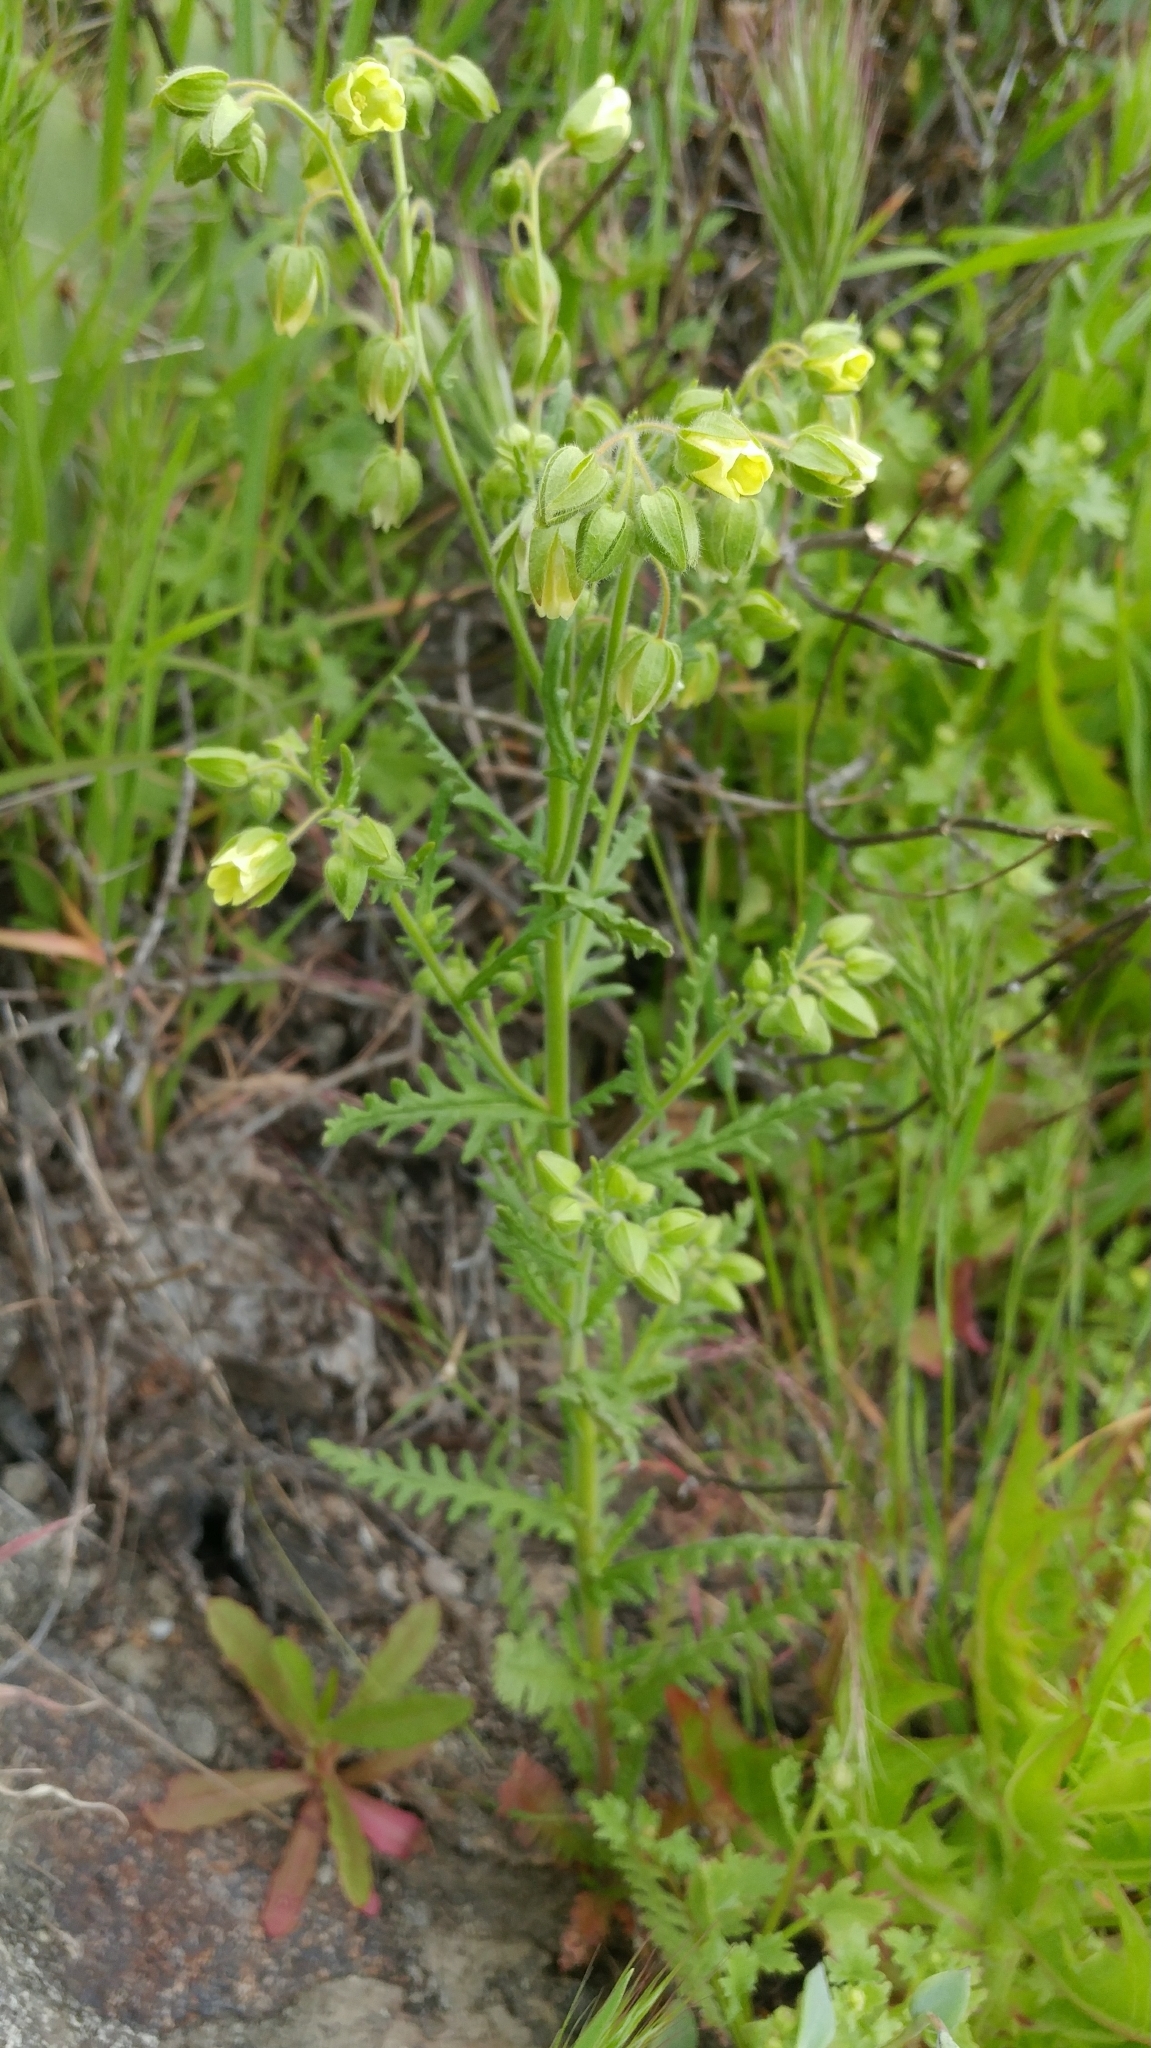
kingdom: Plantae
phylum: Tracheophyta
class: Magnoliopsida
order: Boraginales
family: Hydrophyllaceae
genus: Emmenanthe
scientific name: Emmenanthe penduliflora
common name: Whispering-bells
